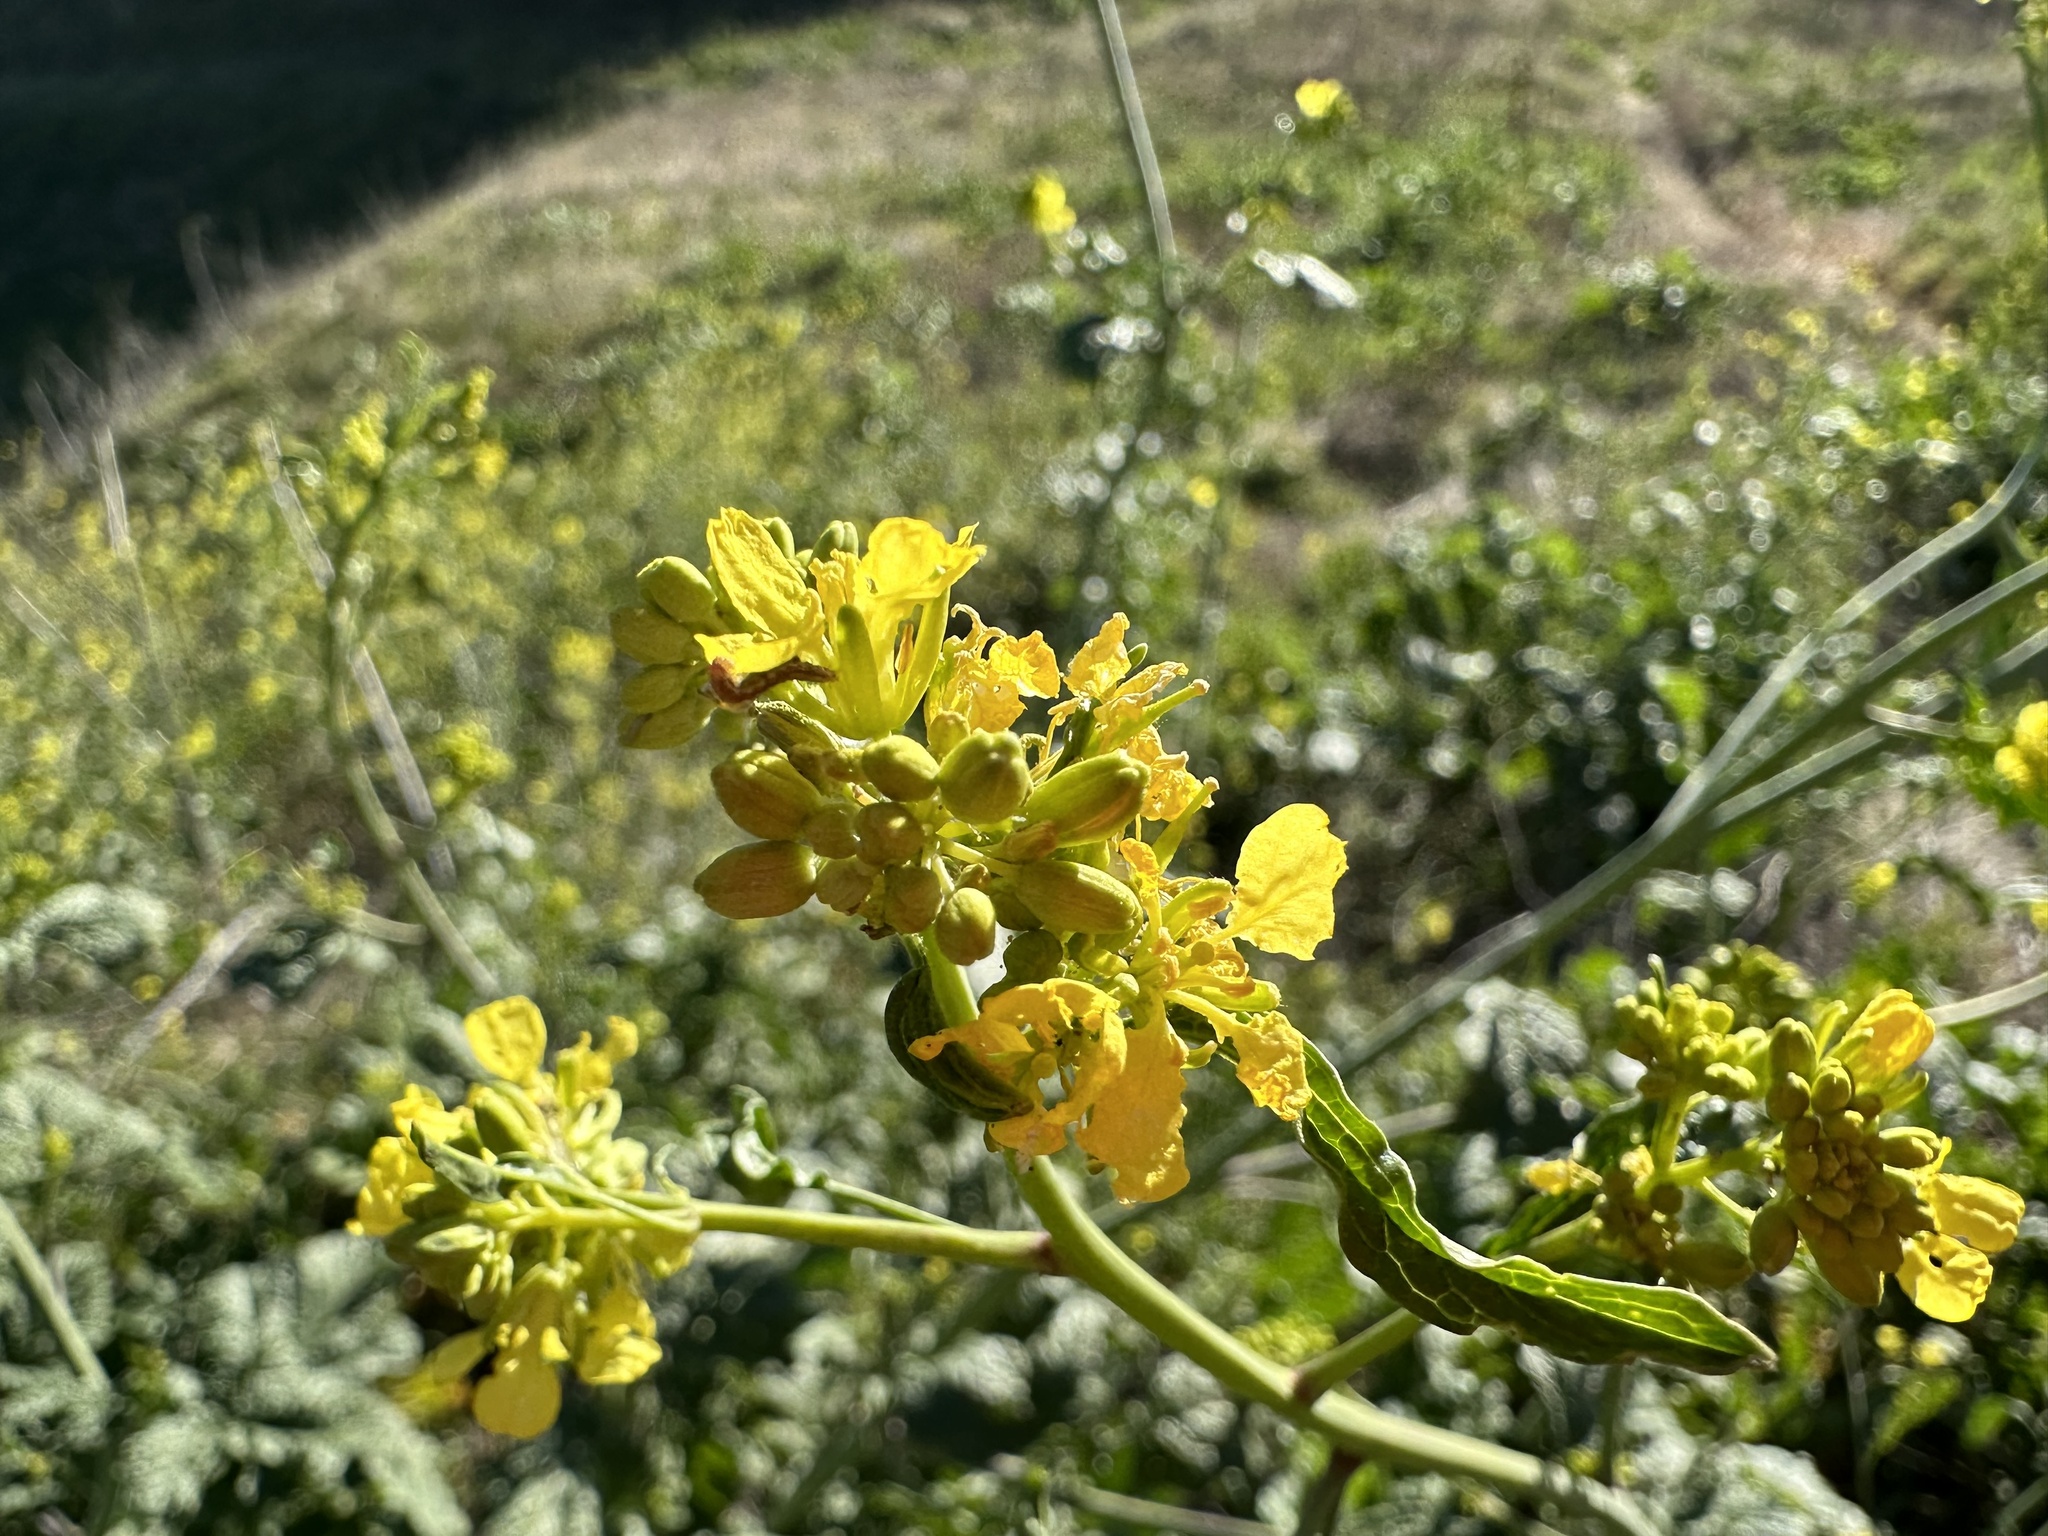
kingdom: Plantae
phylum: Tracheophyta
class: Magnoliopsida
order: Brassicales
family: Brassicaceae
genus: Brassica
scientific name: Brassica nigra
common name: Black mustard
